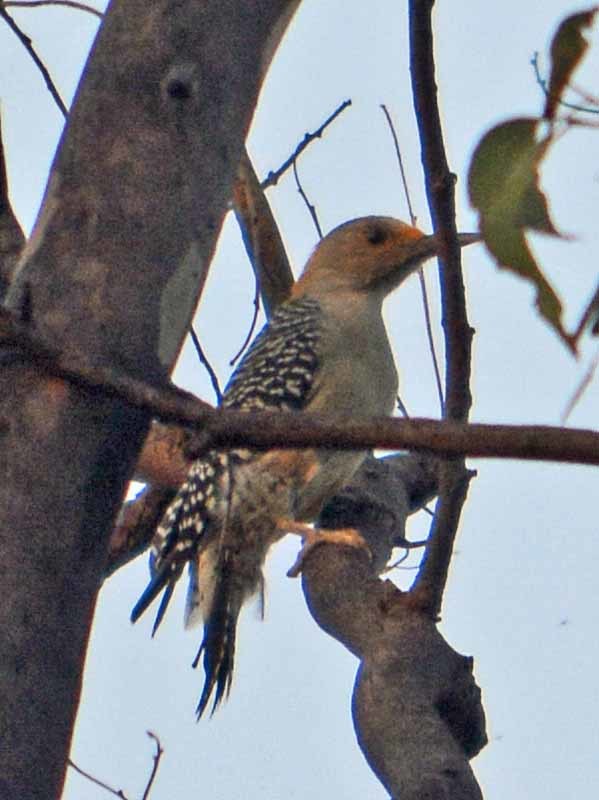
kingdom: Animalia
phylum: Chordata
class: Aves
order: Piciformes
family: Picidae
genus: Melanerpes
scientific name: Melanerpes aurifrons
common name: Golden-fronted woodpecker
